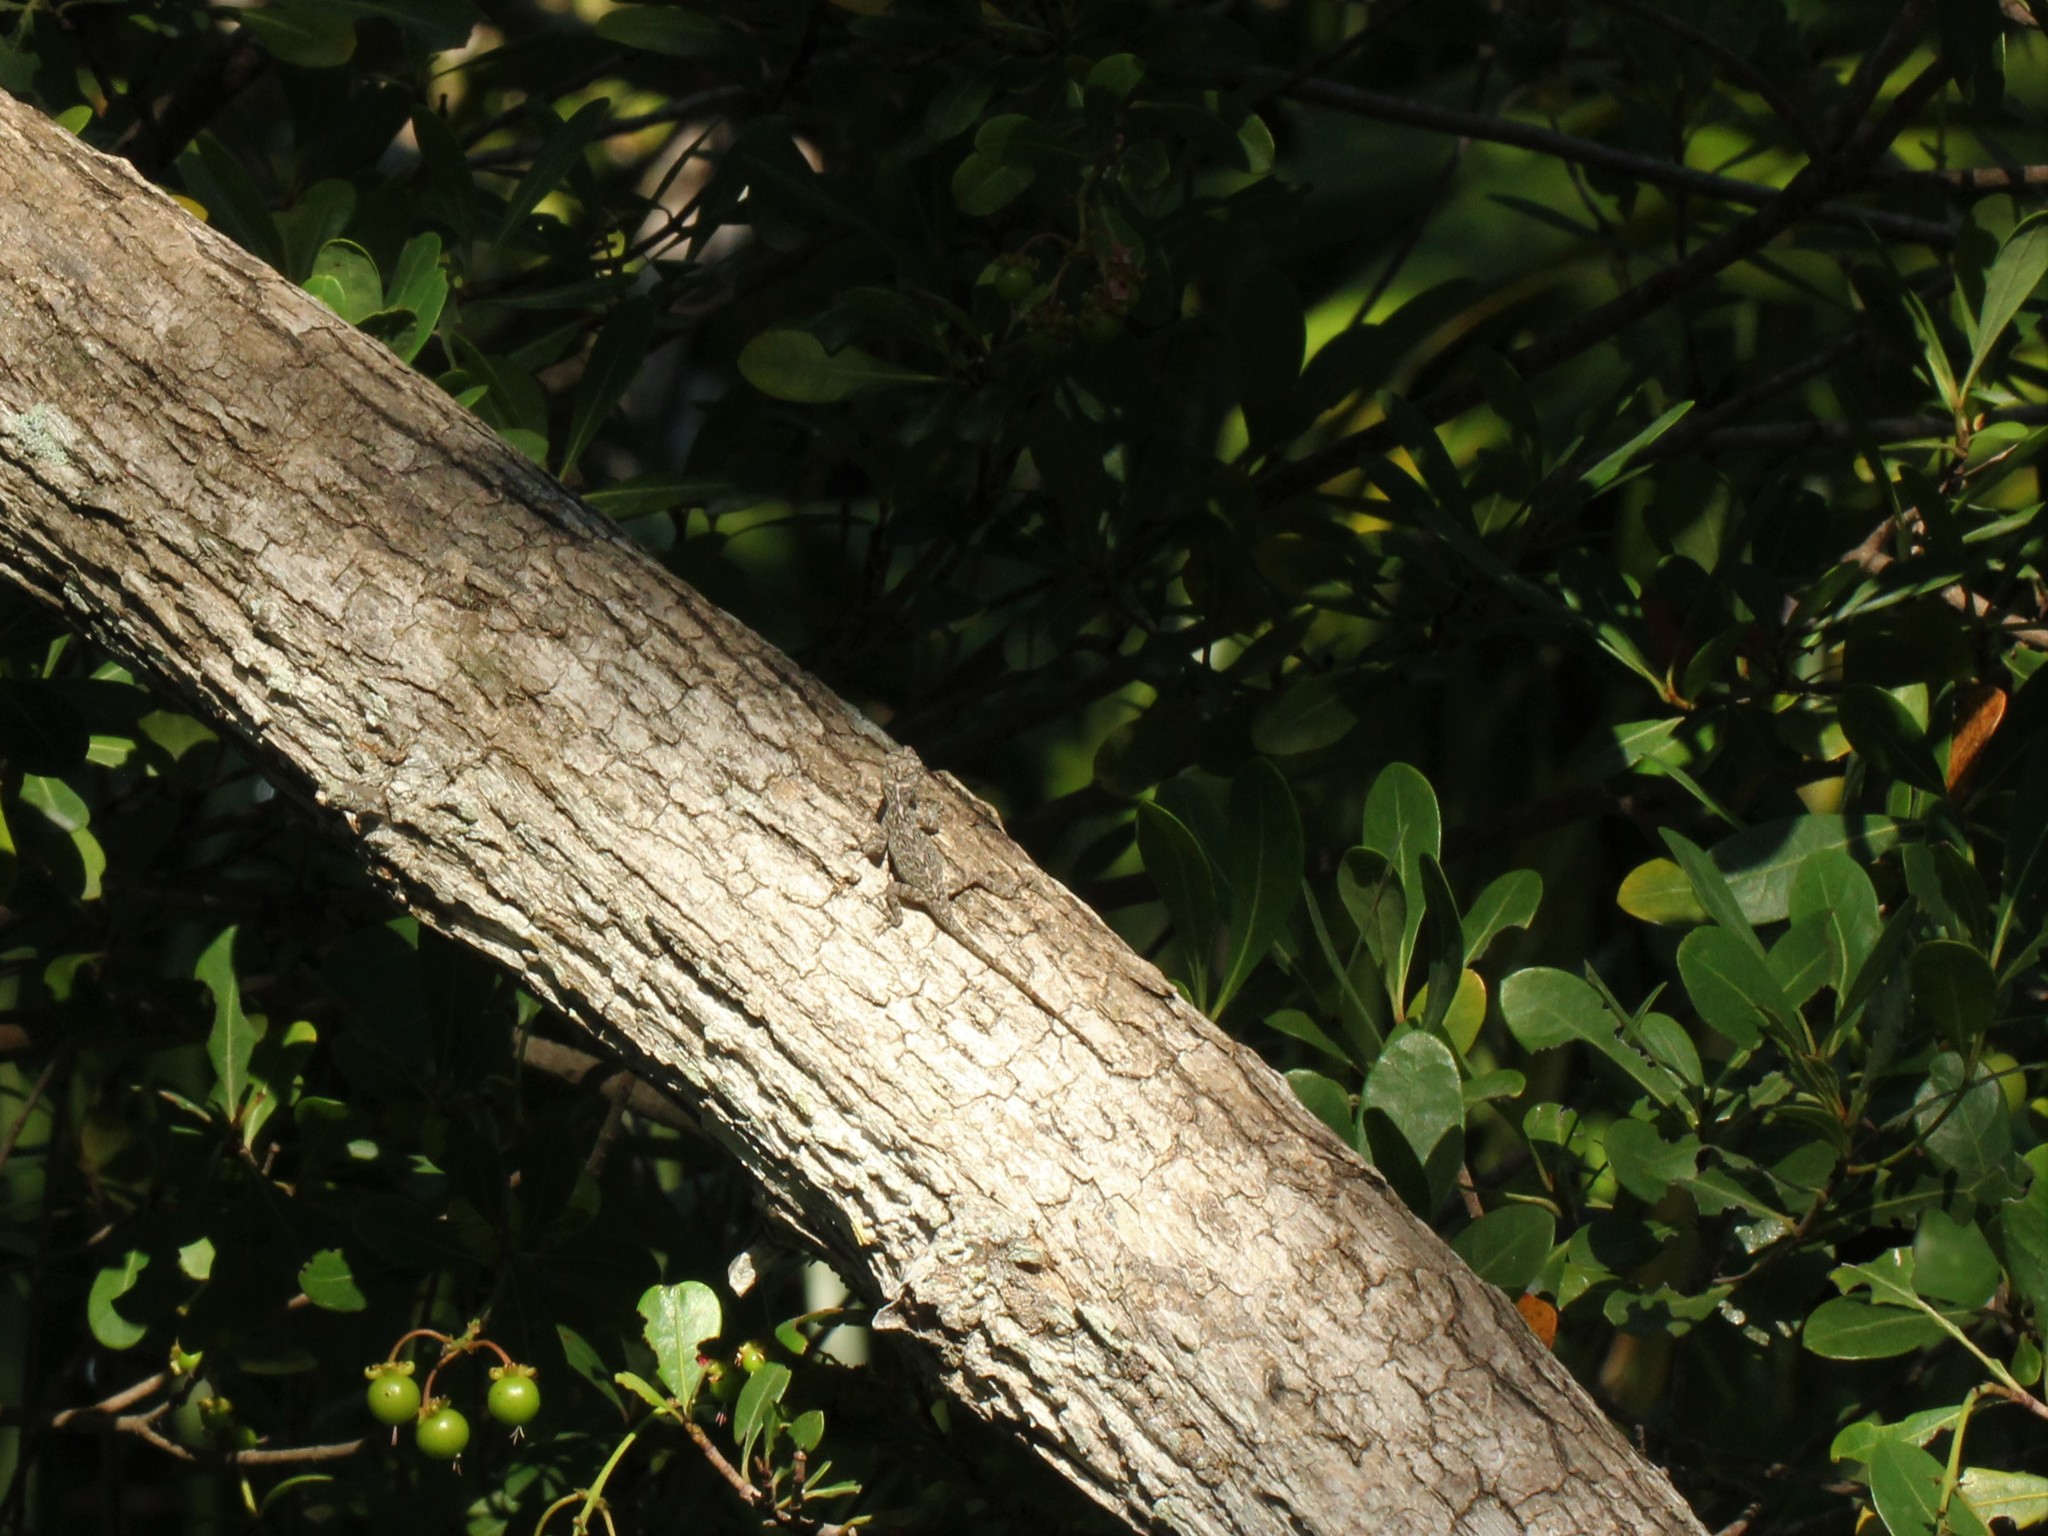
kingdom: Animalia
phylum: Chordata
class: Squamata
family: Dactyloidae
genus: Anolis
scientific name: Anolis distichus
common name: Bark anole
